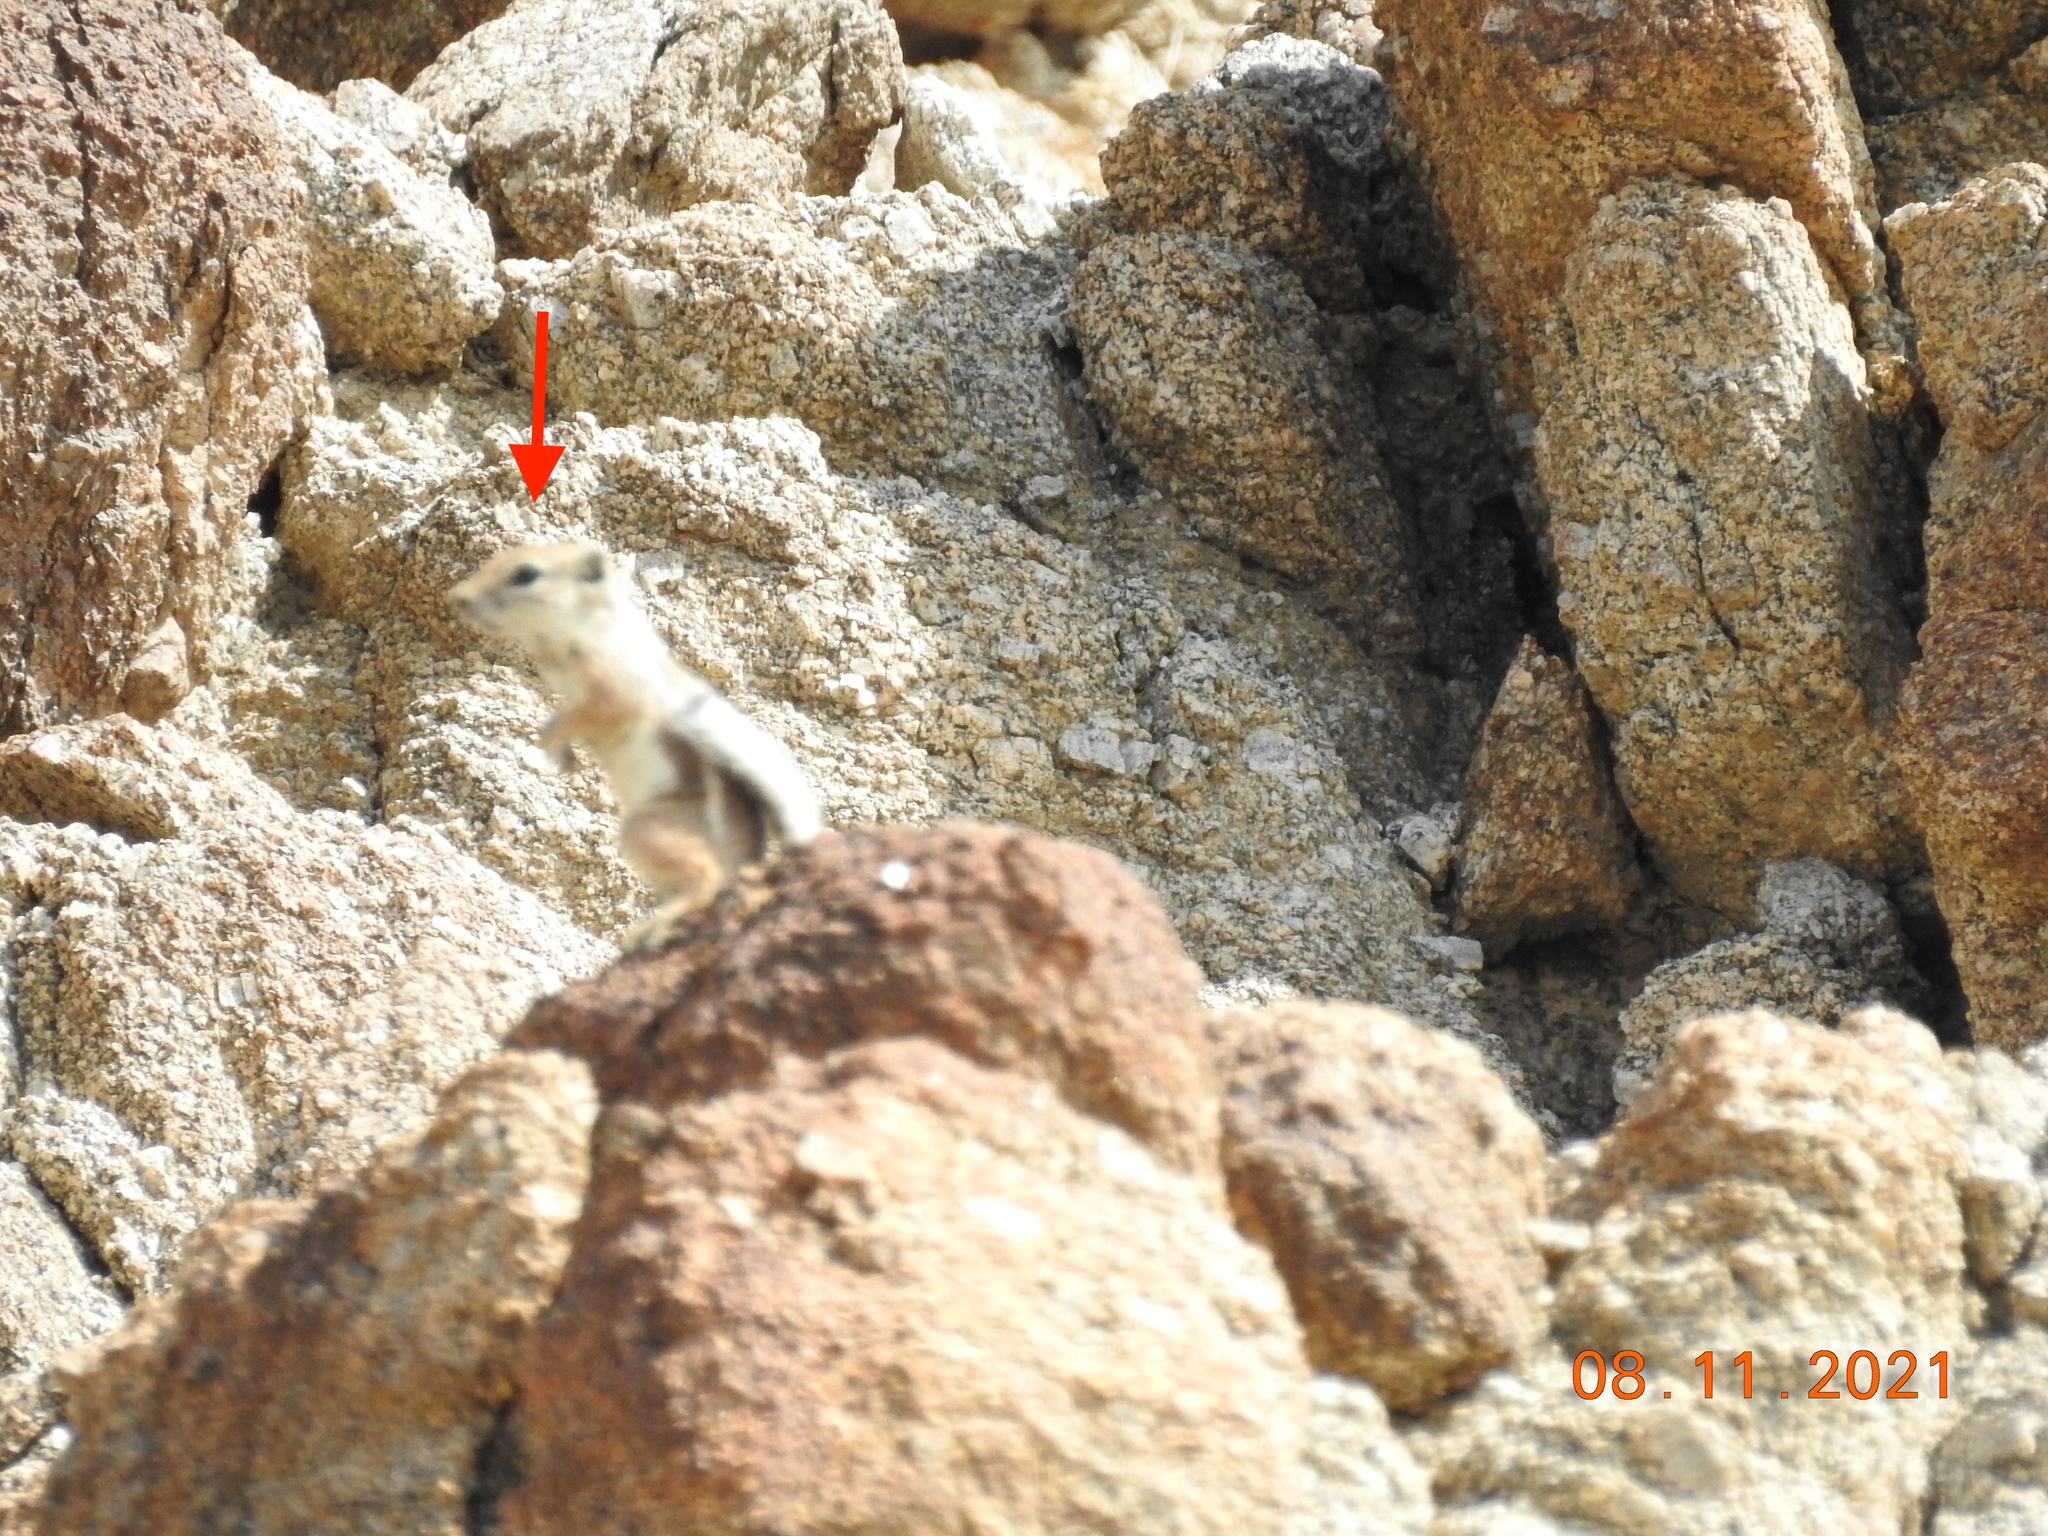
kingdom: Animalia
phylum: Chordata
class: Mammalia
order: Rodentia
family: Sciuridae
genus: Ammospermophilus
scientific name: Ammospermophilus leucurus
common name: White-tailed antelope squirrel
